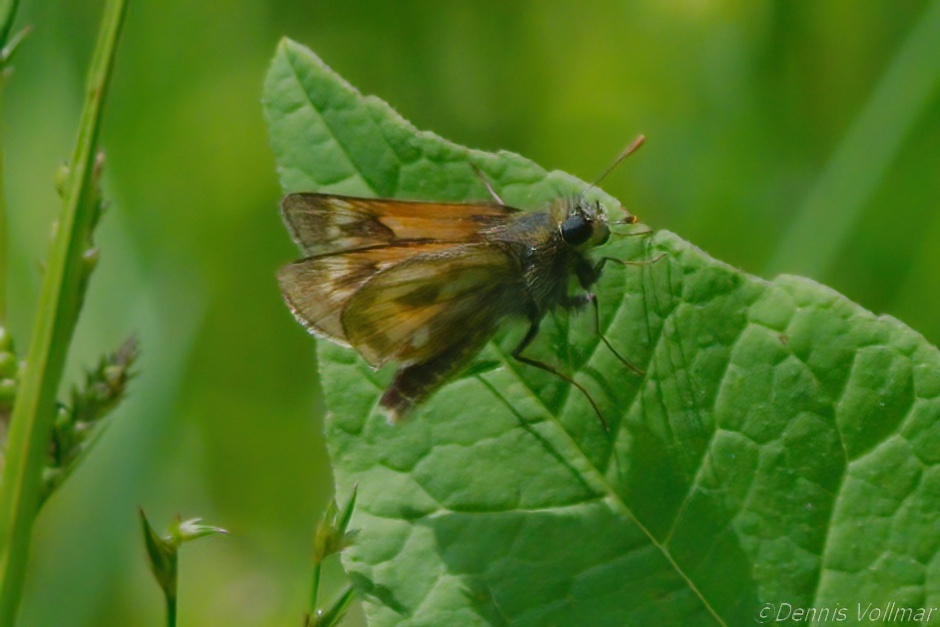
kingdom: Animalia
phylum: Arthropoda
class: Insecta
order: Lepidoptera
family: Hesperiidae
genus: Polites
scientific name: Polites mystic
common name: Long dash
